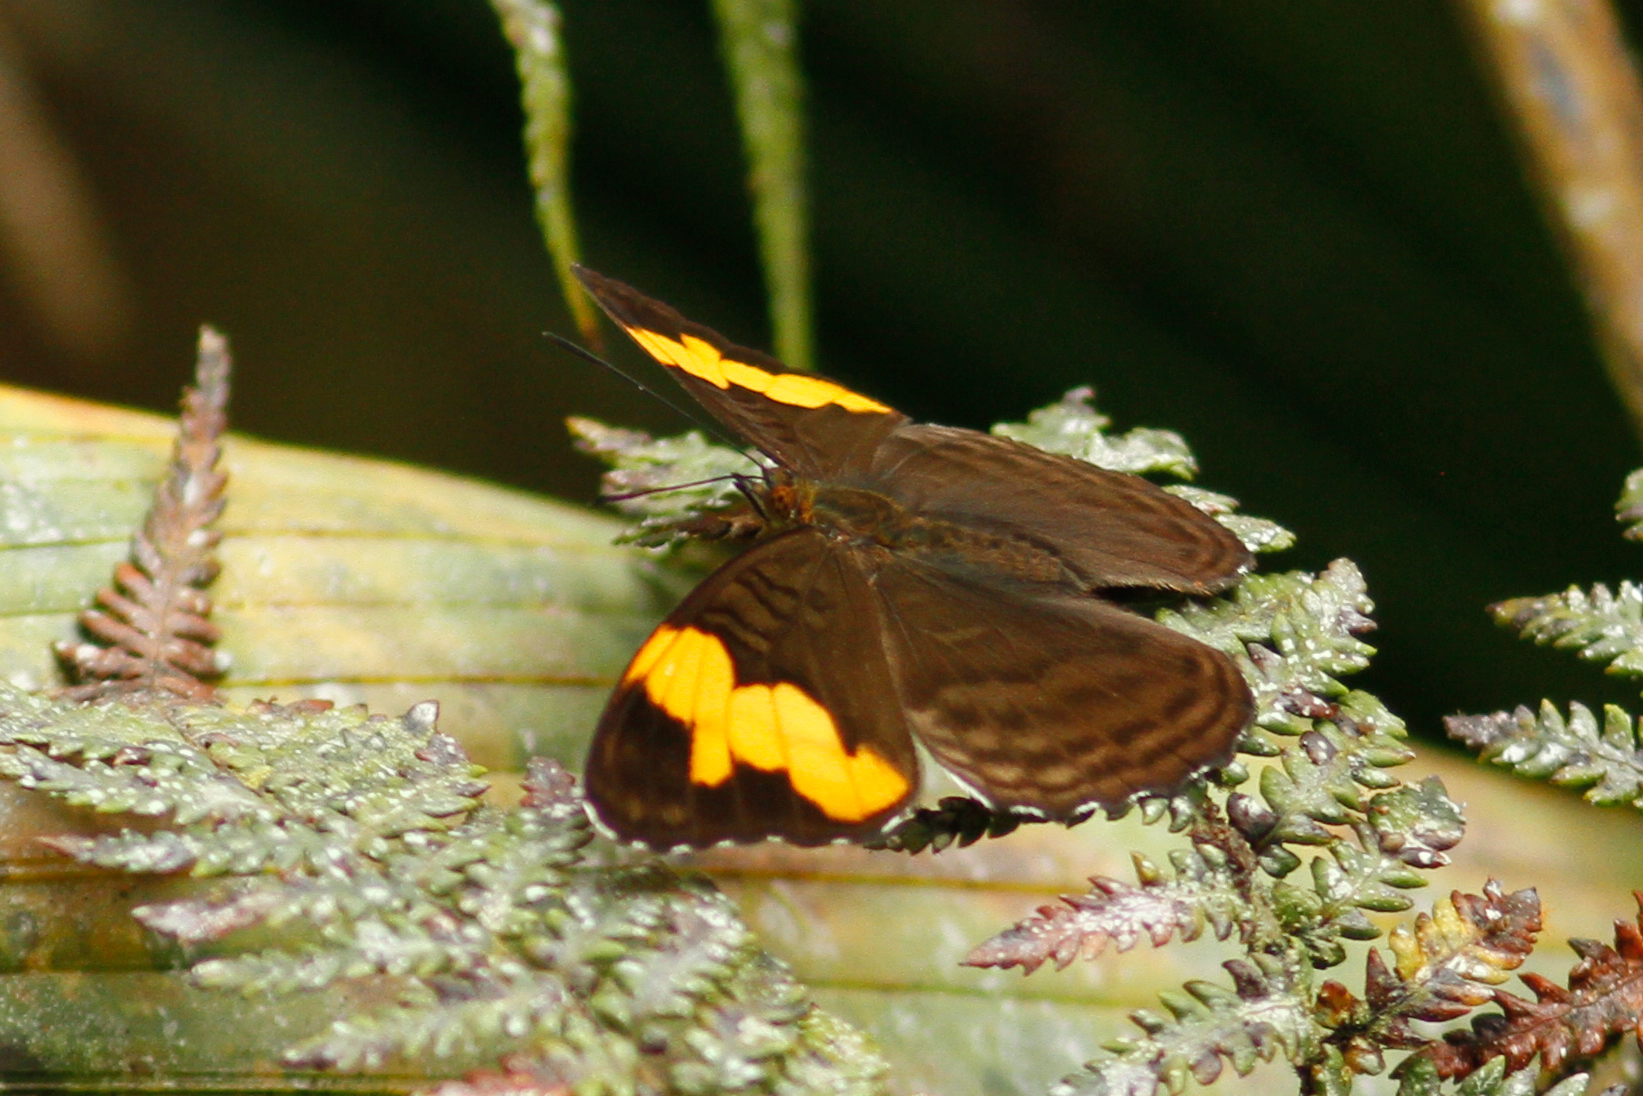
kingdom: Animalia
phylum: Arthropoda
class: Insecta
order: Lepidoptera
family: Nymphalidae
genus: Limenitis
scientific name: Limenitis zina
